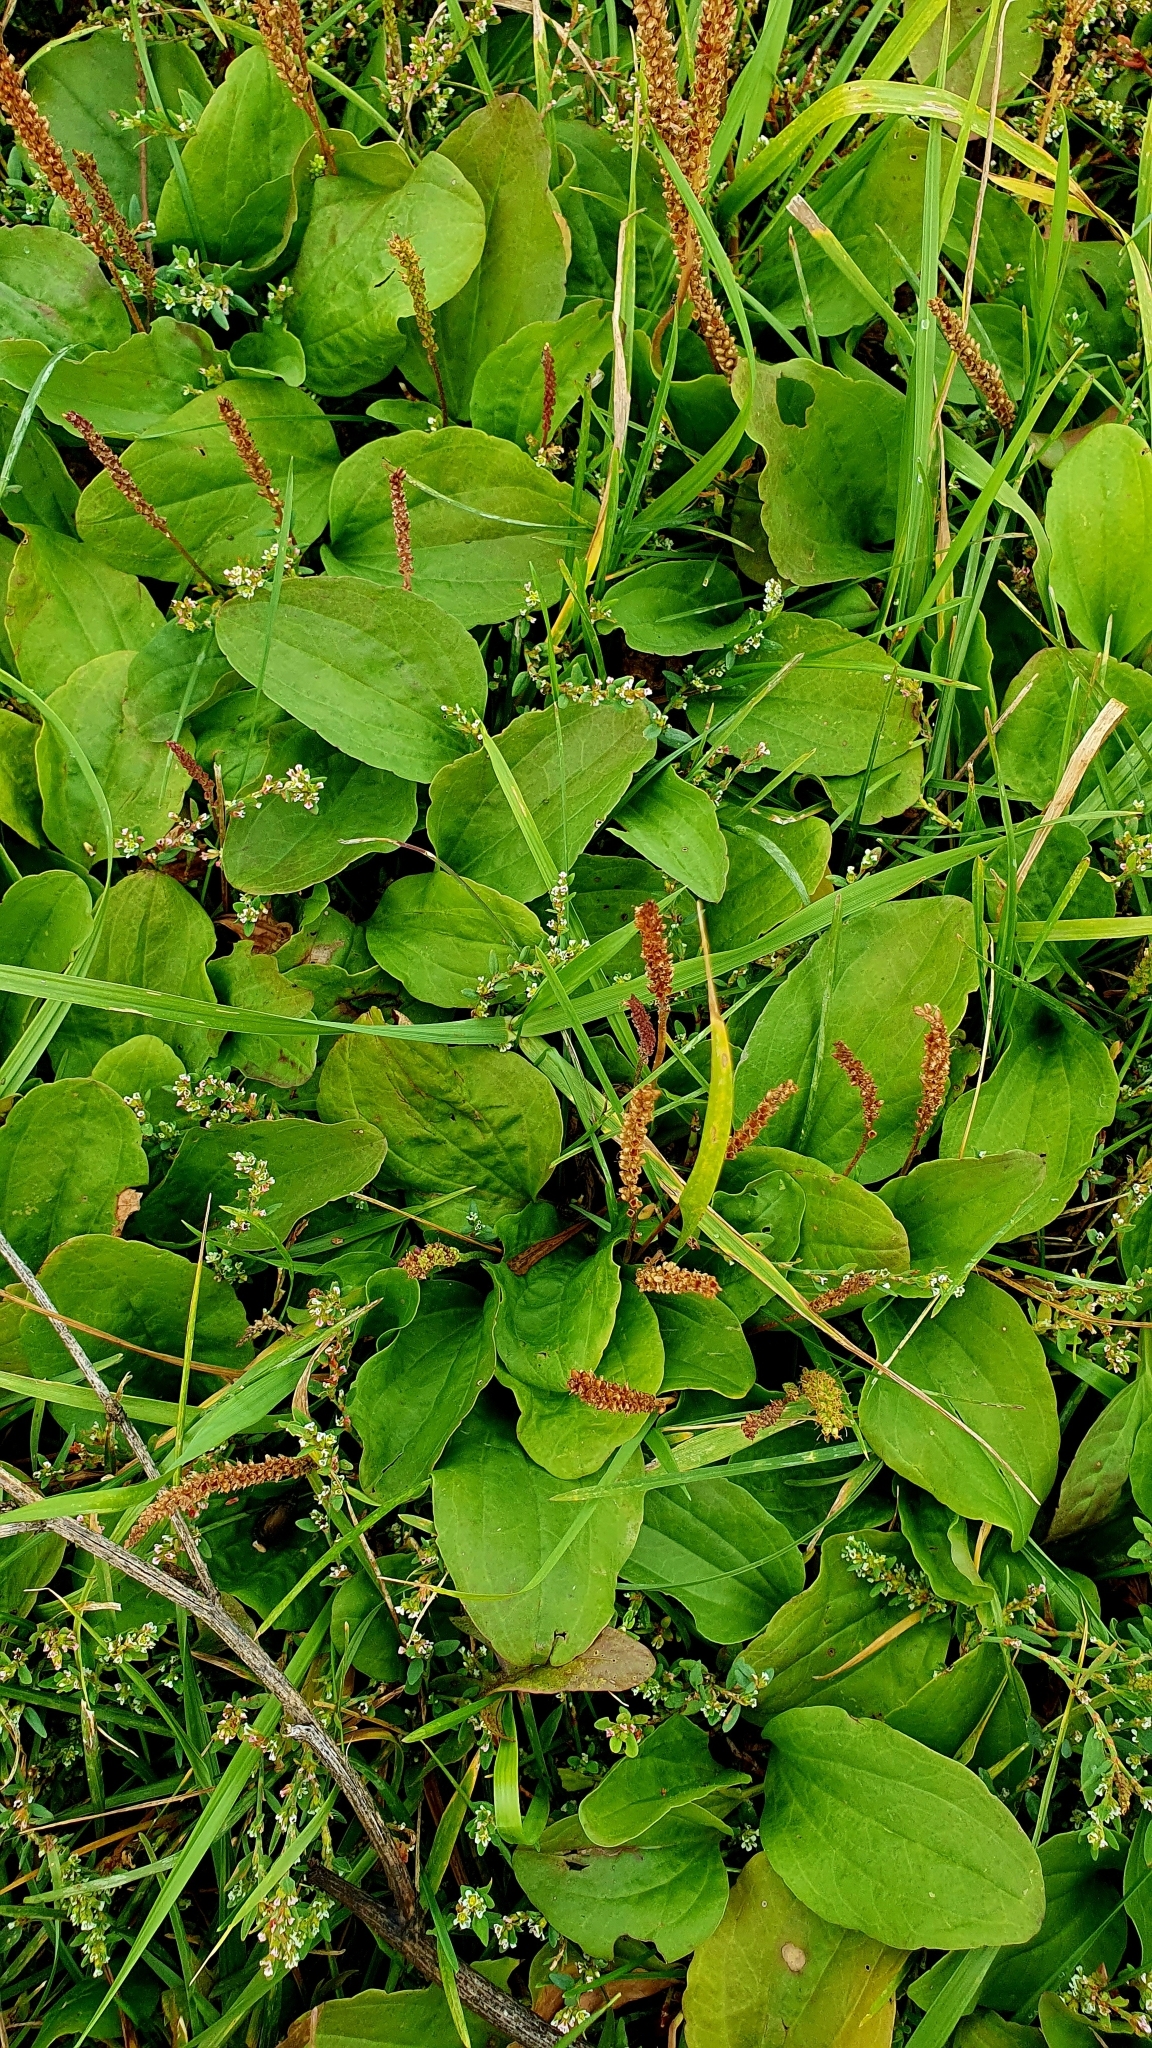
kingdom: Plantae
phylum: Tracheophyta
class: Magnoliopsida
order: Lamiales
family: Plantaginaceae
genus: Plantago
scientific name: Plantago major
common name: Common plantain
